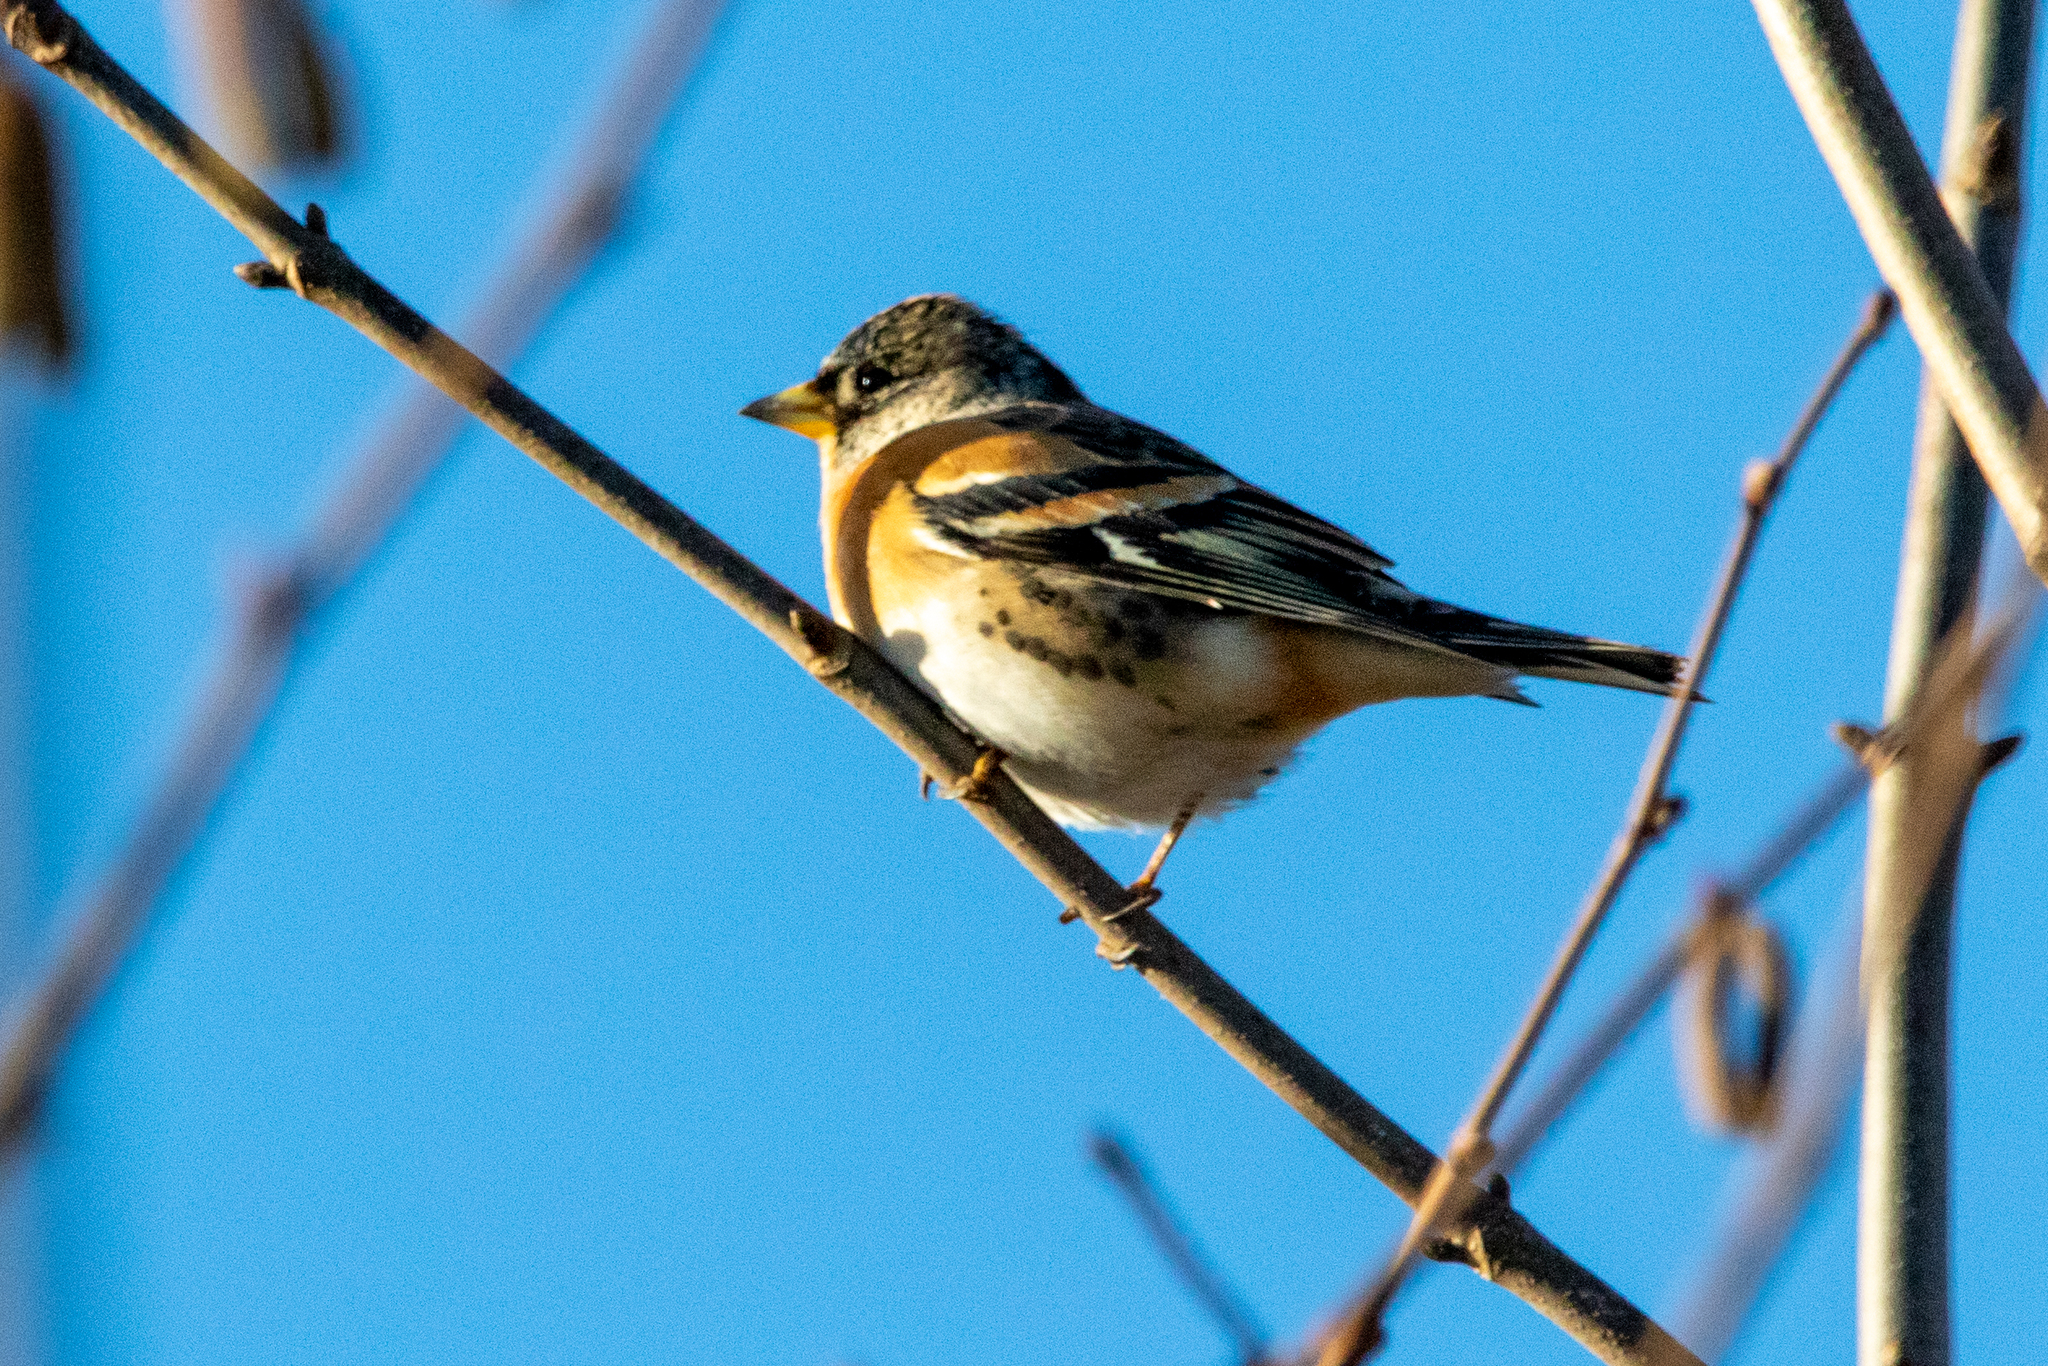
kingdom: Animalia
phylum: Chordata
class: Aves
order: Passeriformes
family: Fringillidae
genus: Fringilla
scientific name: Fringilla montifringilla
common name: Brambling
